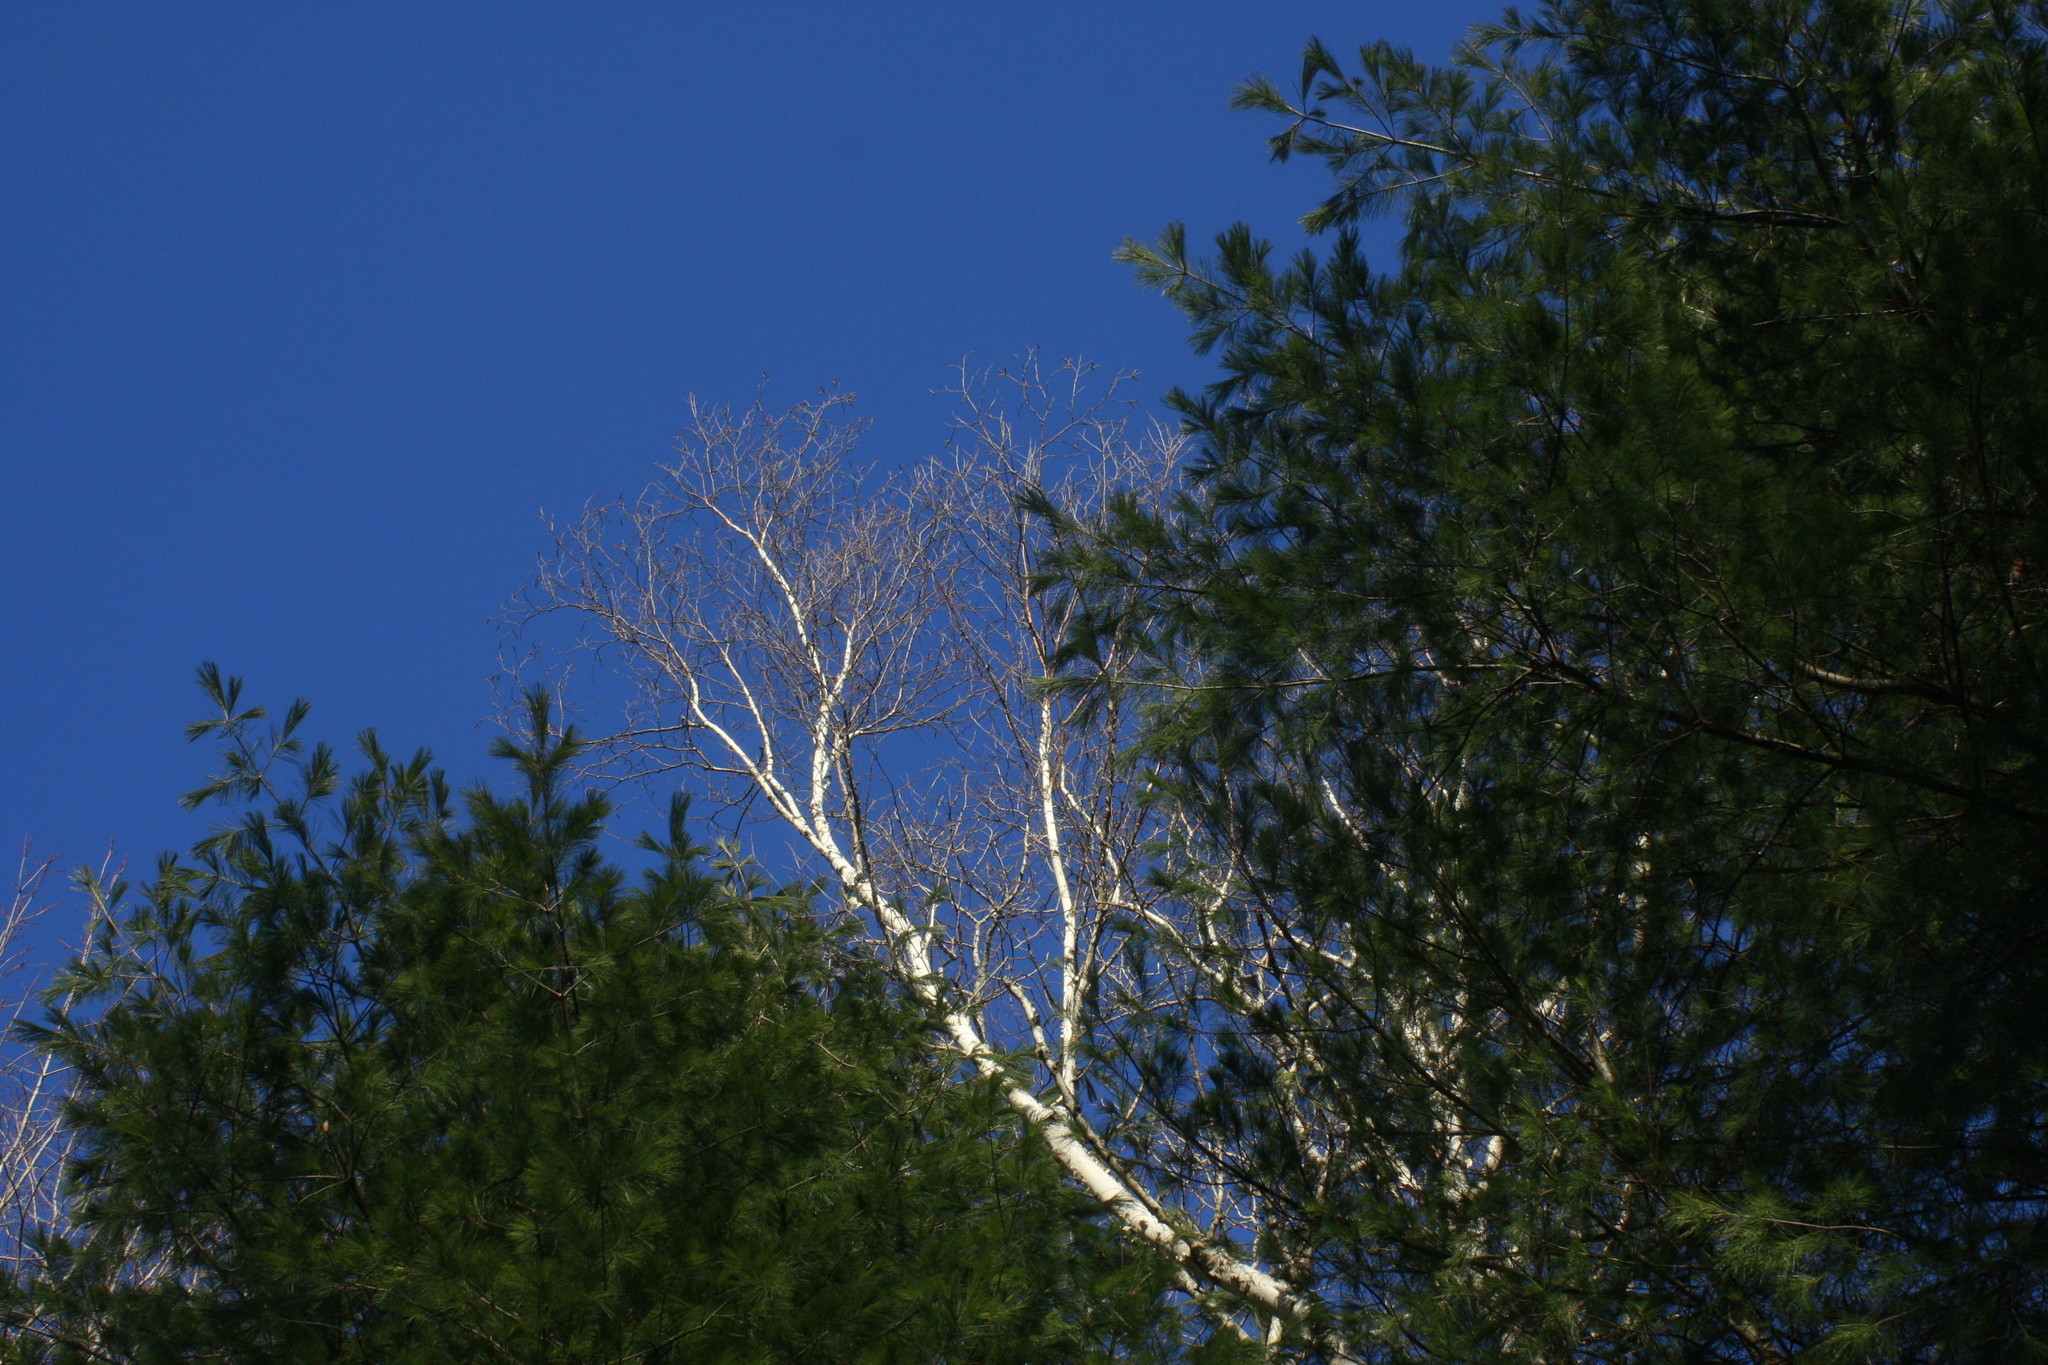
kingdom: Plantae
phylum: Tracheophyta
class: Pinopsida
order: Pinales
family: Pinaceae
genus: Pinus
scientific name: Pinus strobus
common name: Weymouth pine
